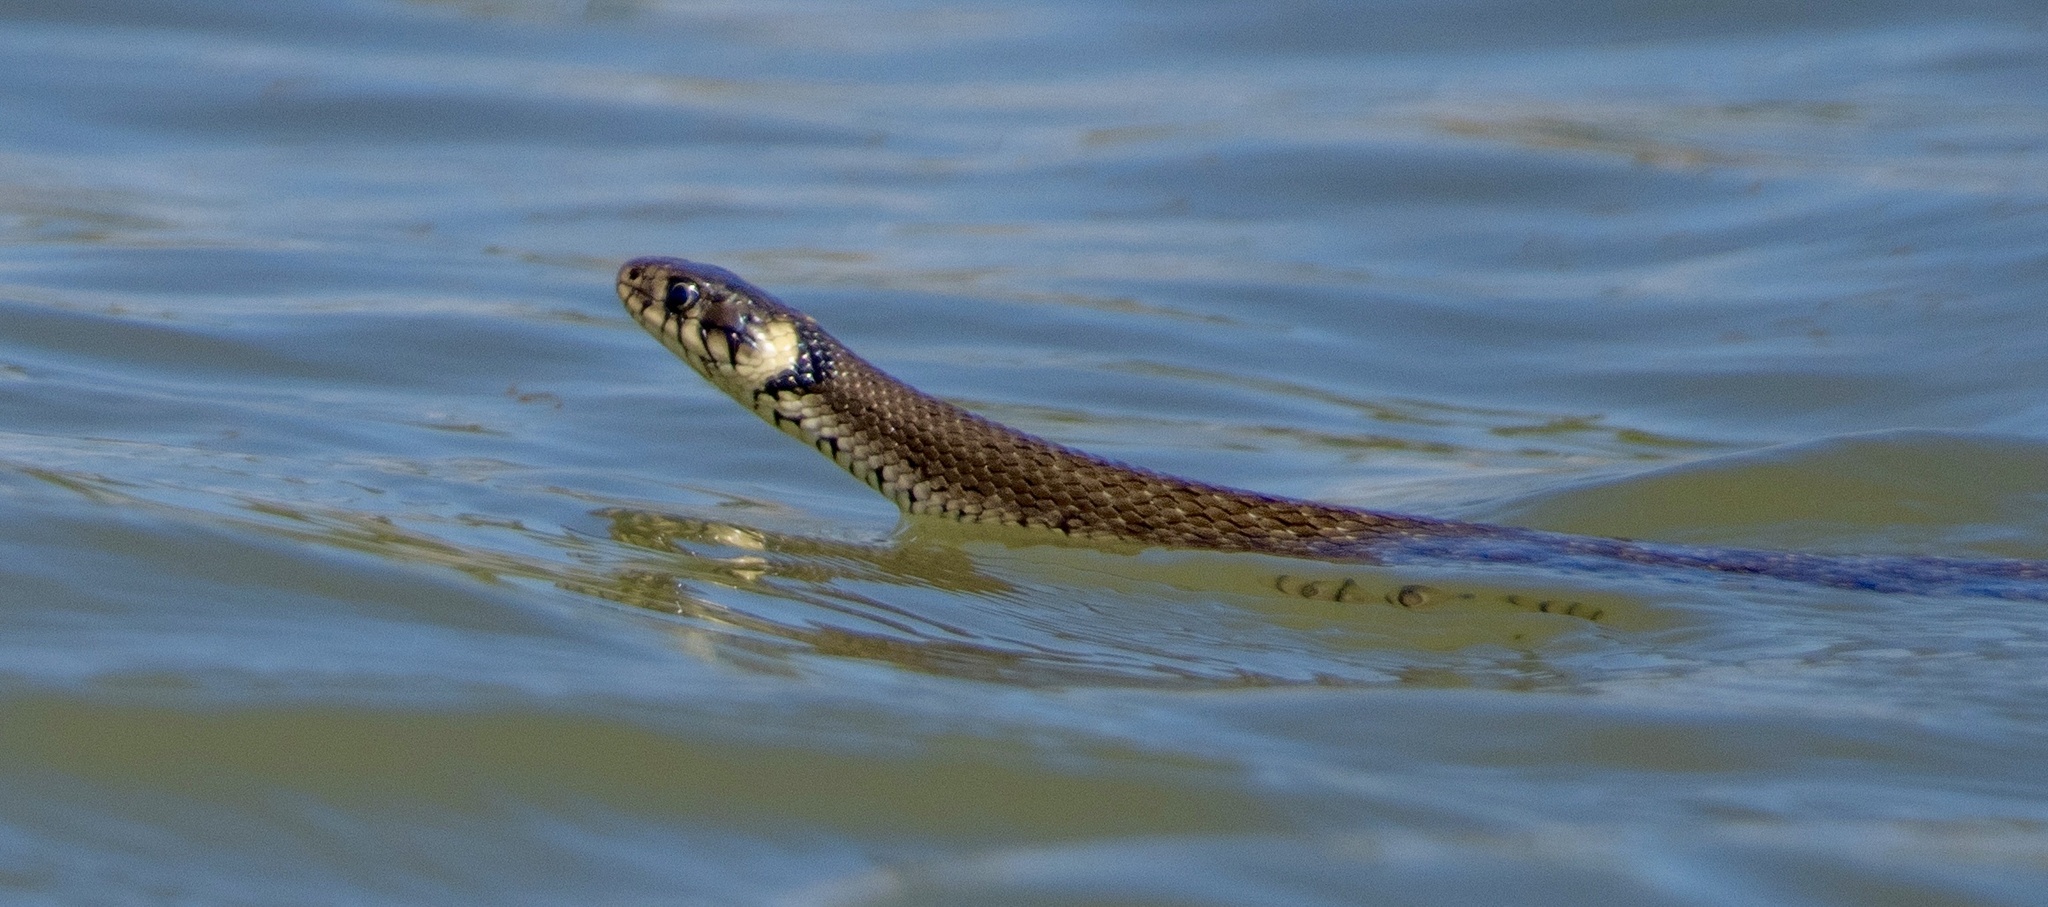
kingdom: Animalia
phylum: Chordata
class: Squamata
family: Colubridae
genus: Natrix
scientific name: Natrix natrix
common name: Grass snake
